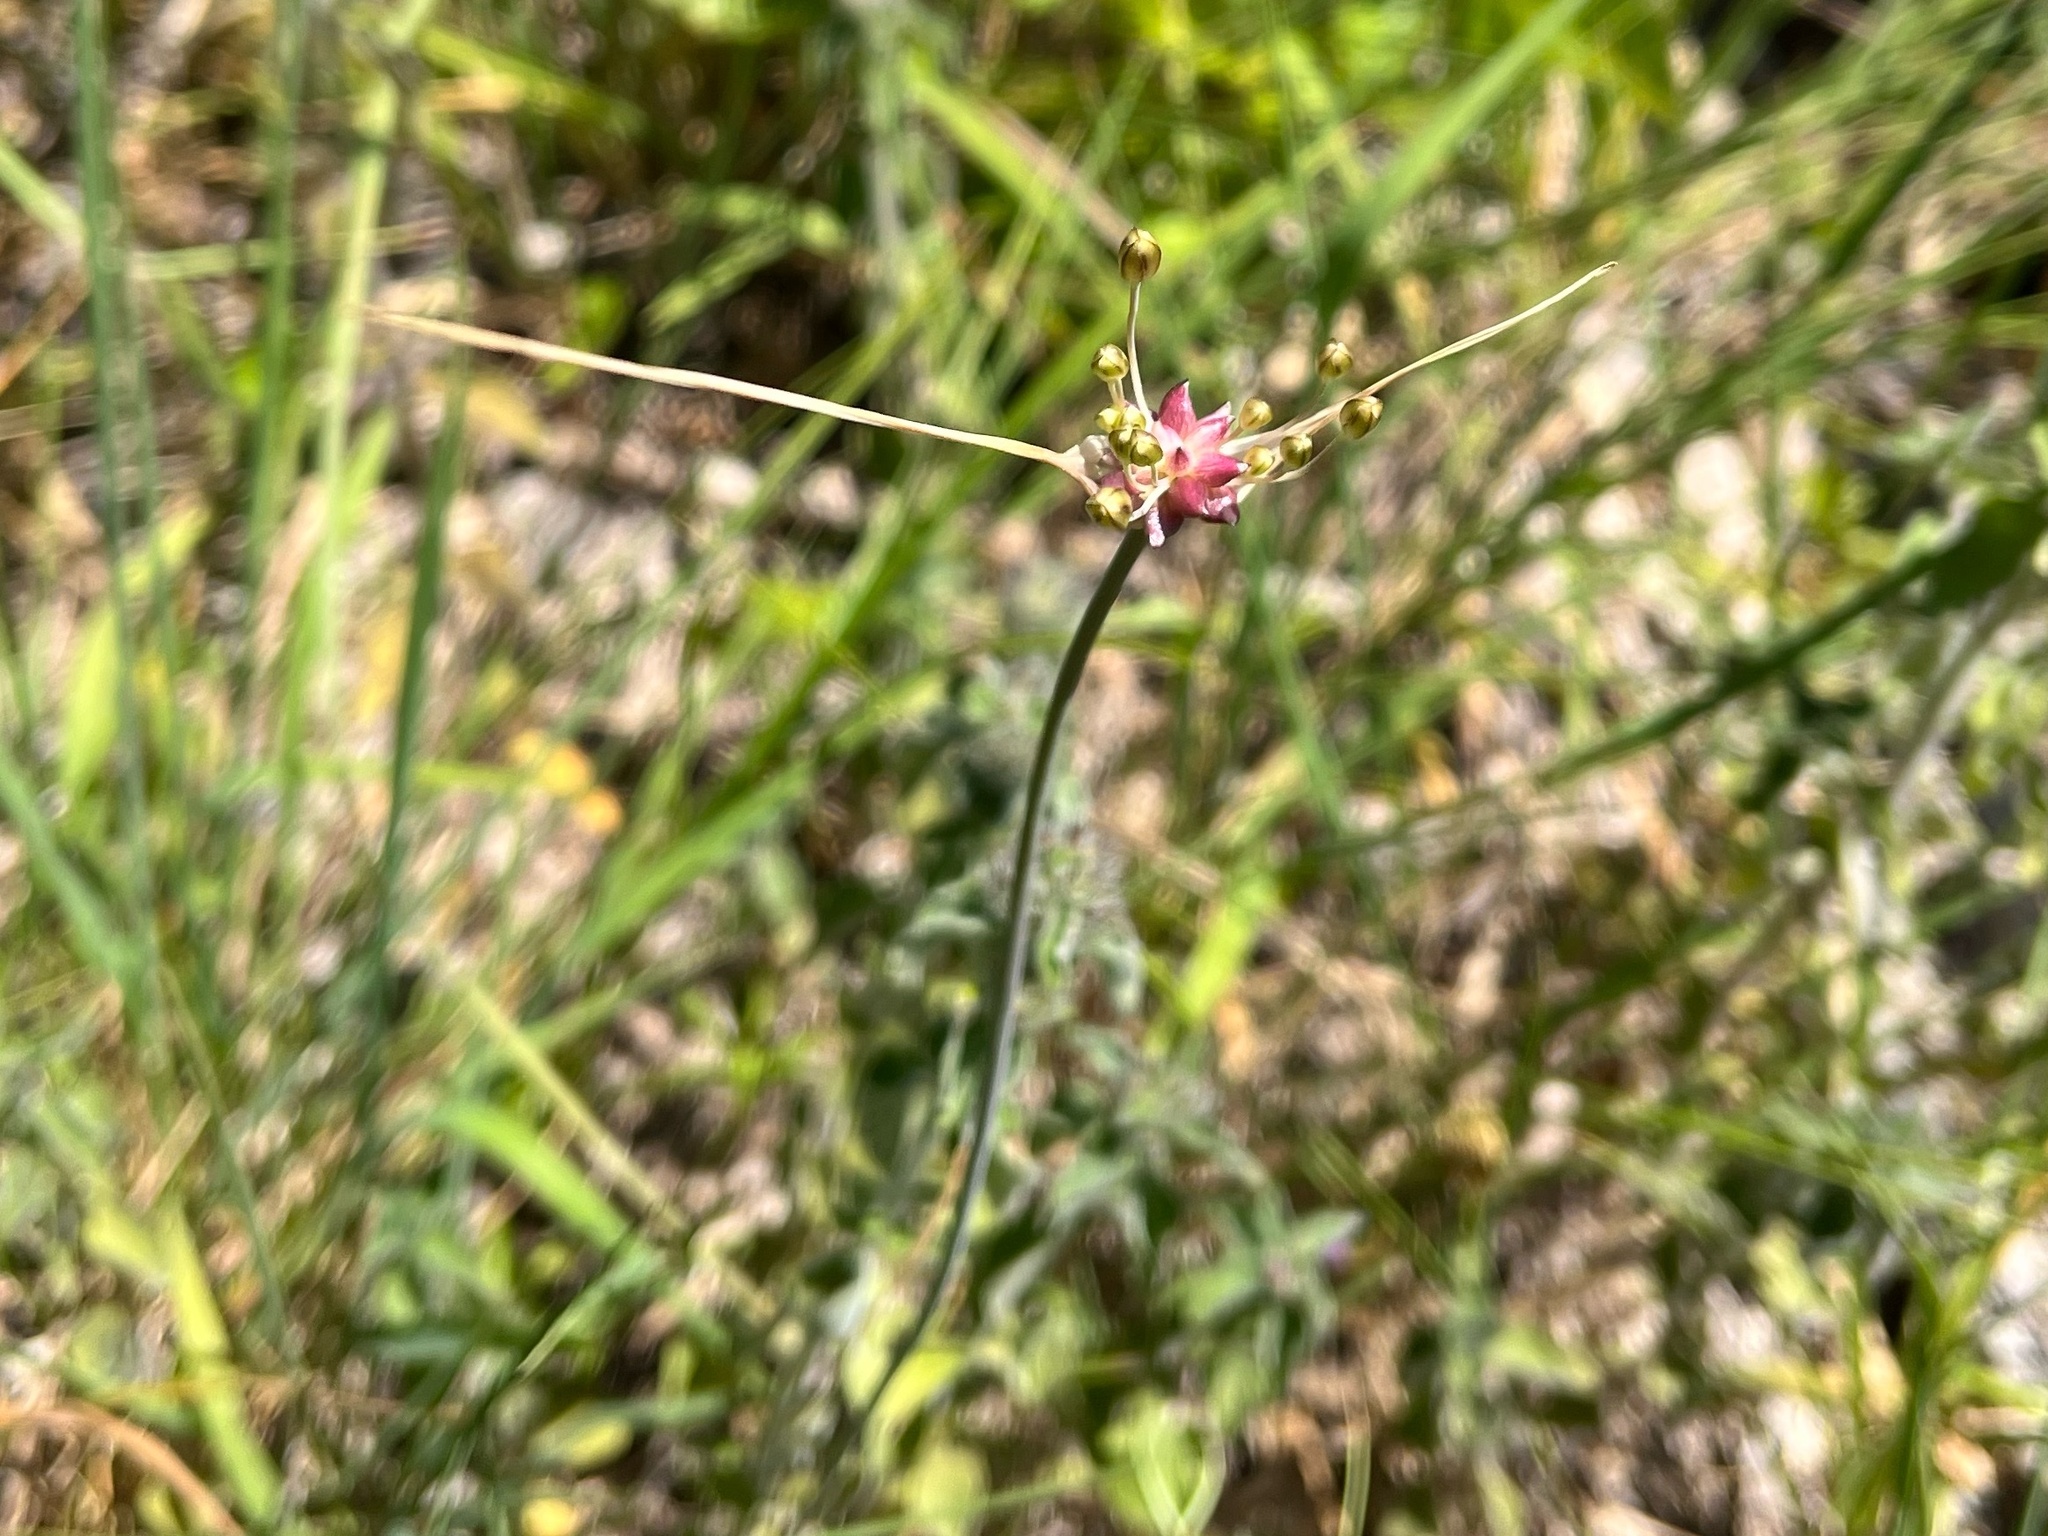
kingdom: Plantae
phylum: Tracheophyta
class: Liliopsida
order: Asparagales
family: Amaryllidaceae
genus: Allium
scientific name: Allium oleraceum
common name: Field garlic
